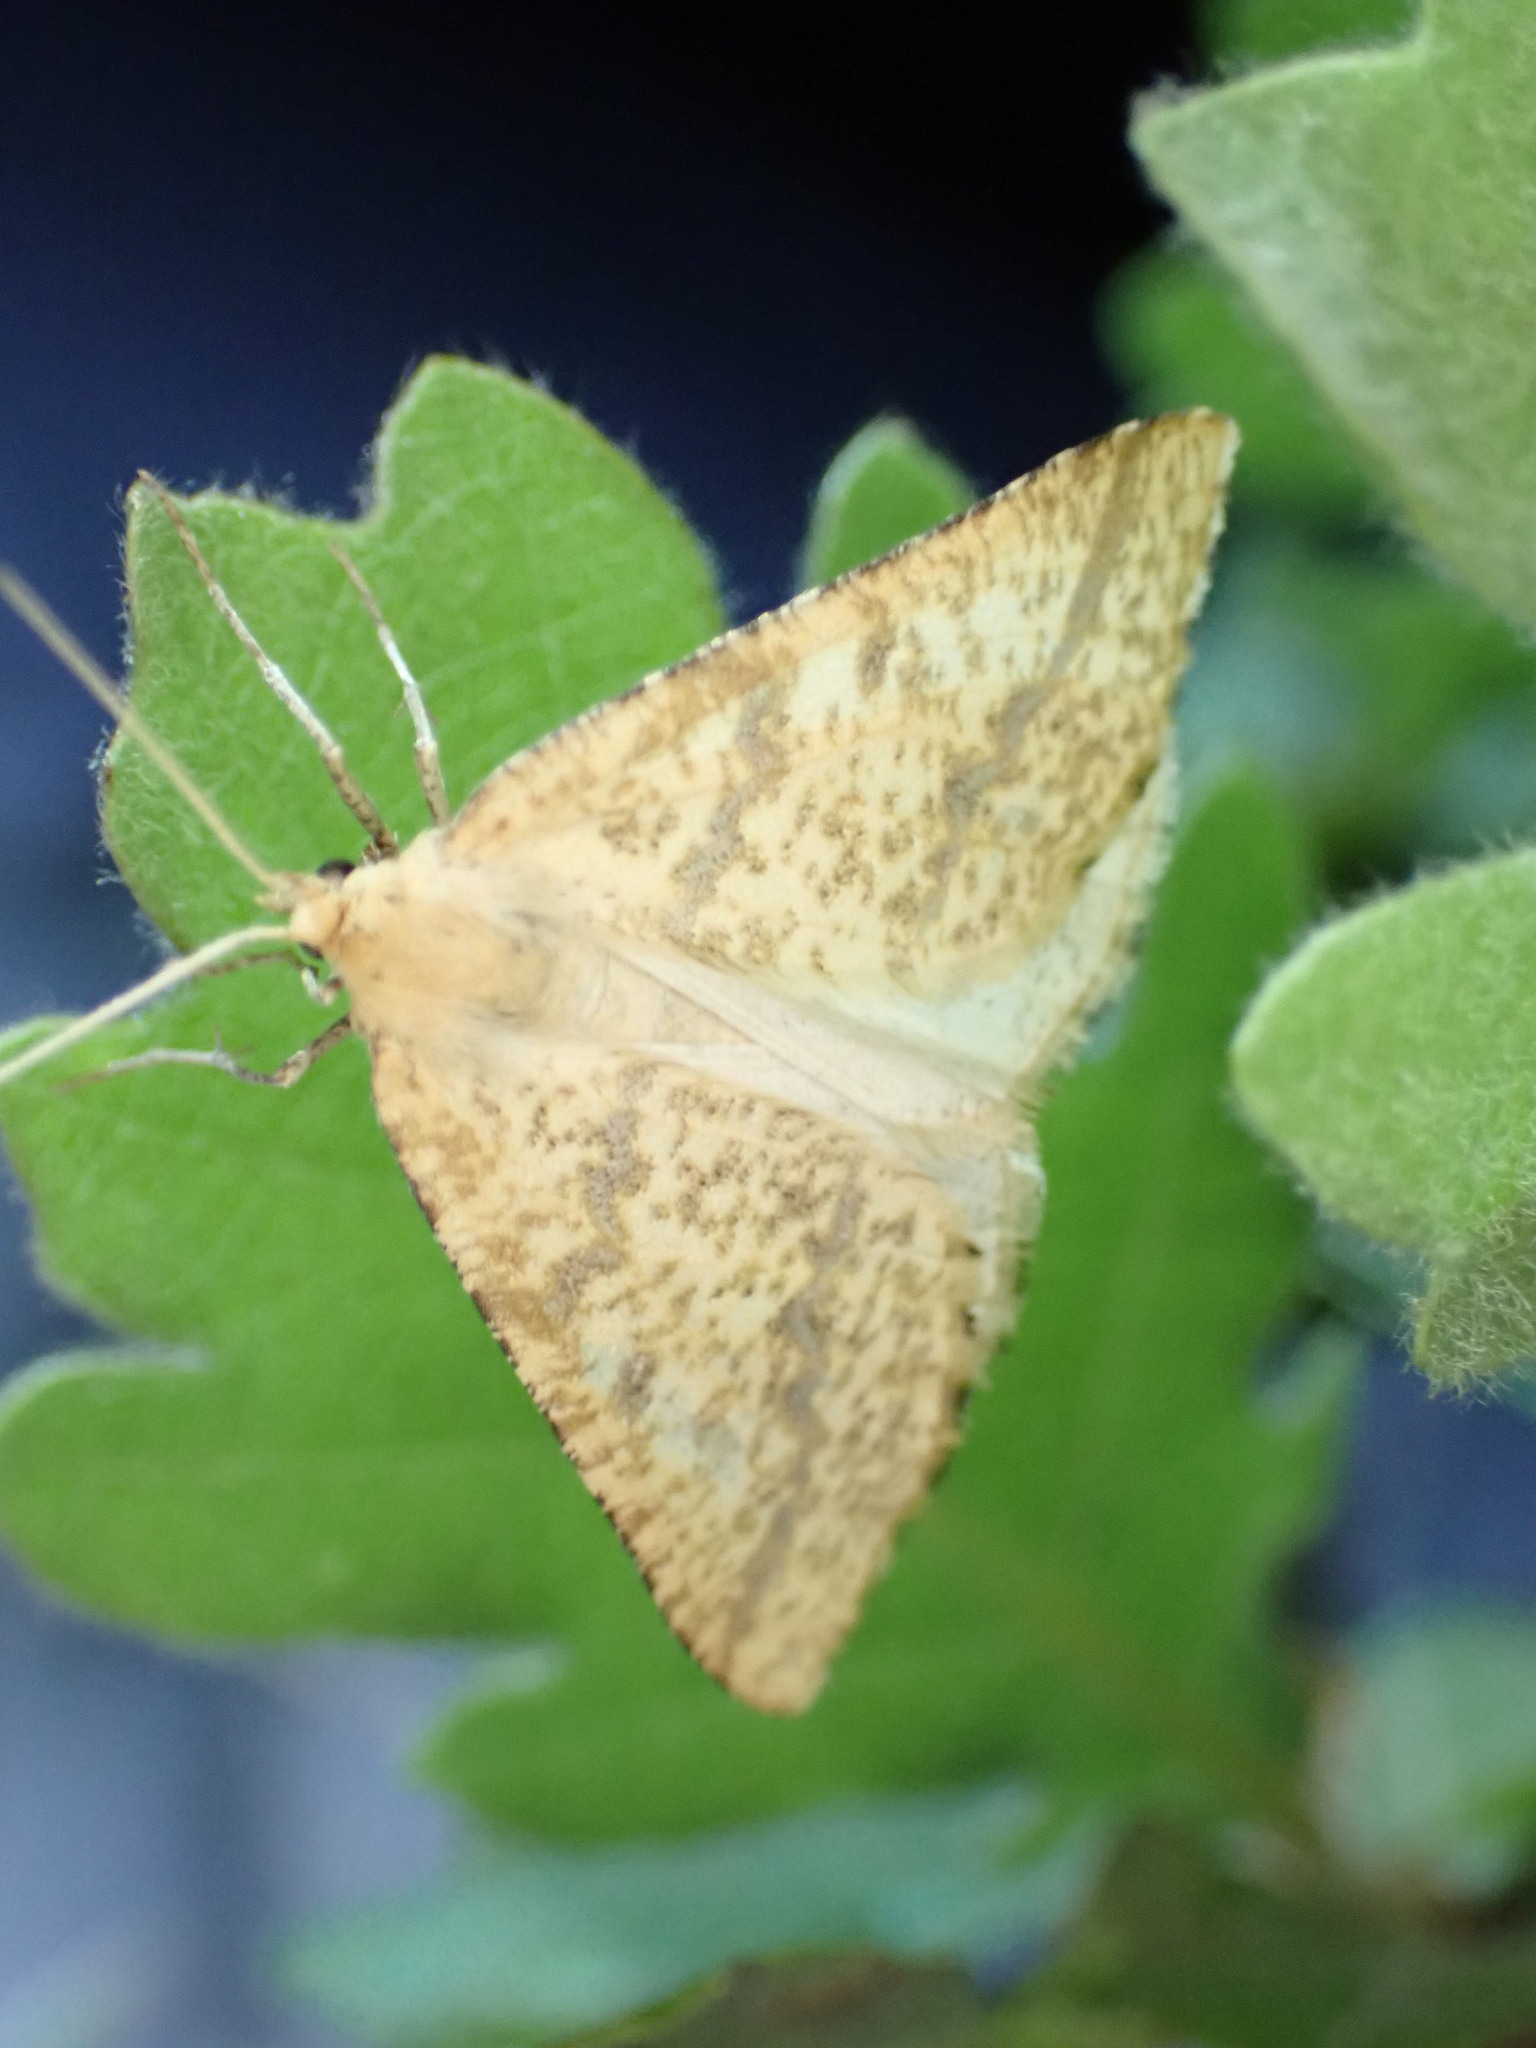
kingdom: Animalia
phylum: Arthropoda
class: Insecta
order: Lepidoptera
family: Geometridae
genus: Aspitates
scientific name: Aspitates ochrearia
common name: Yellow belle
